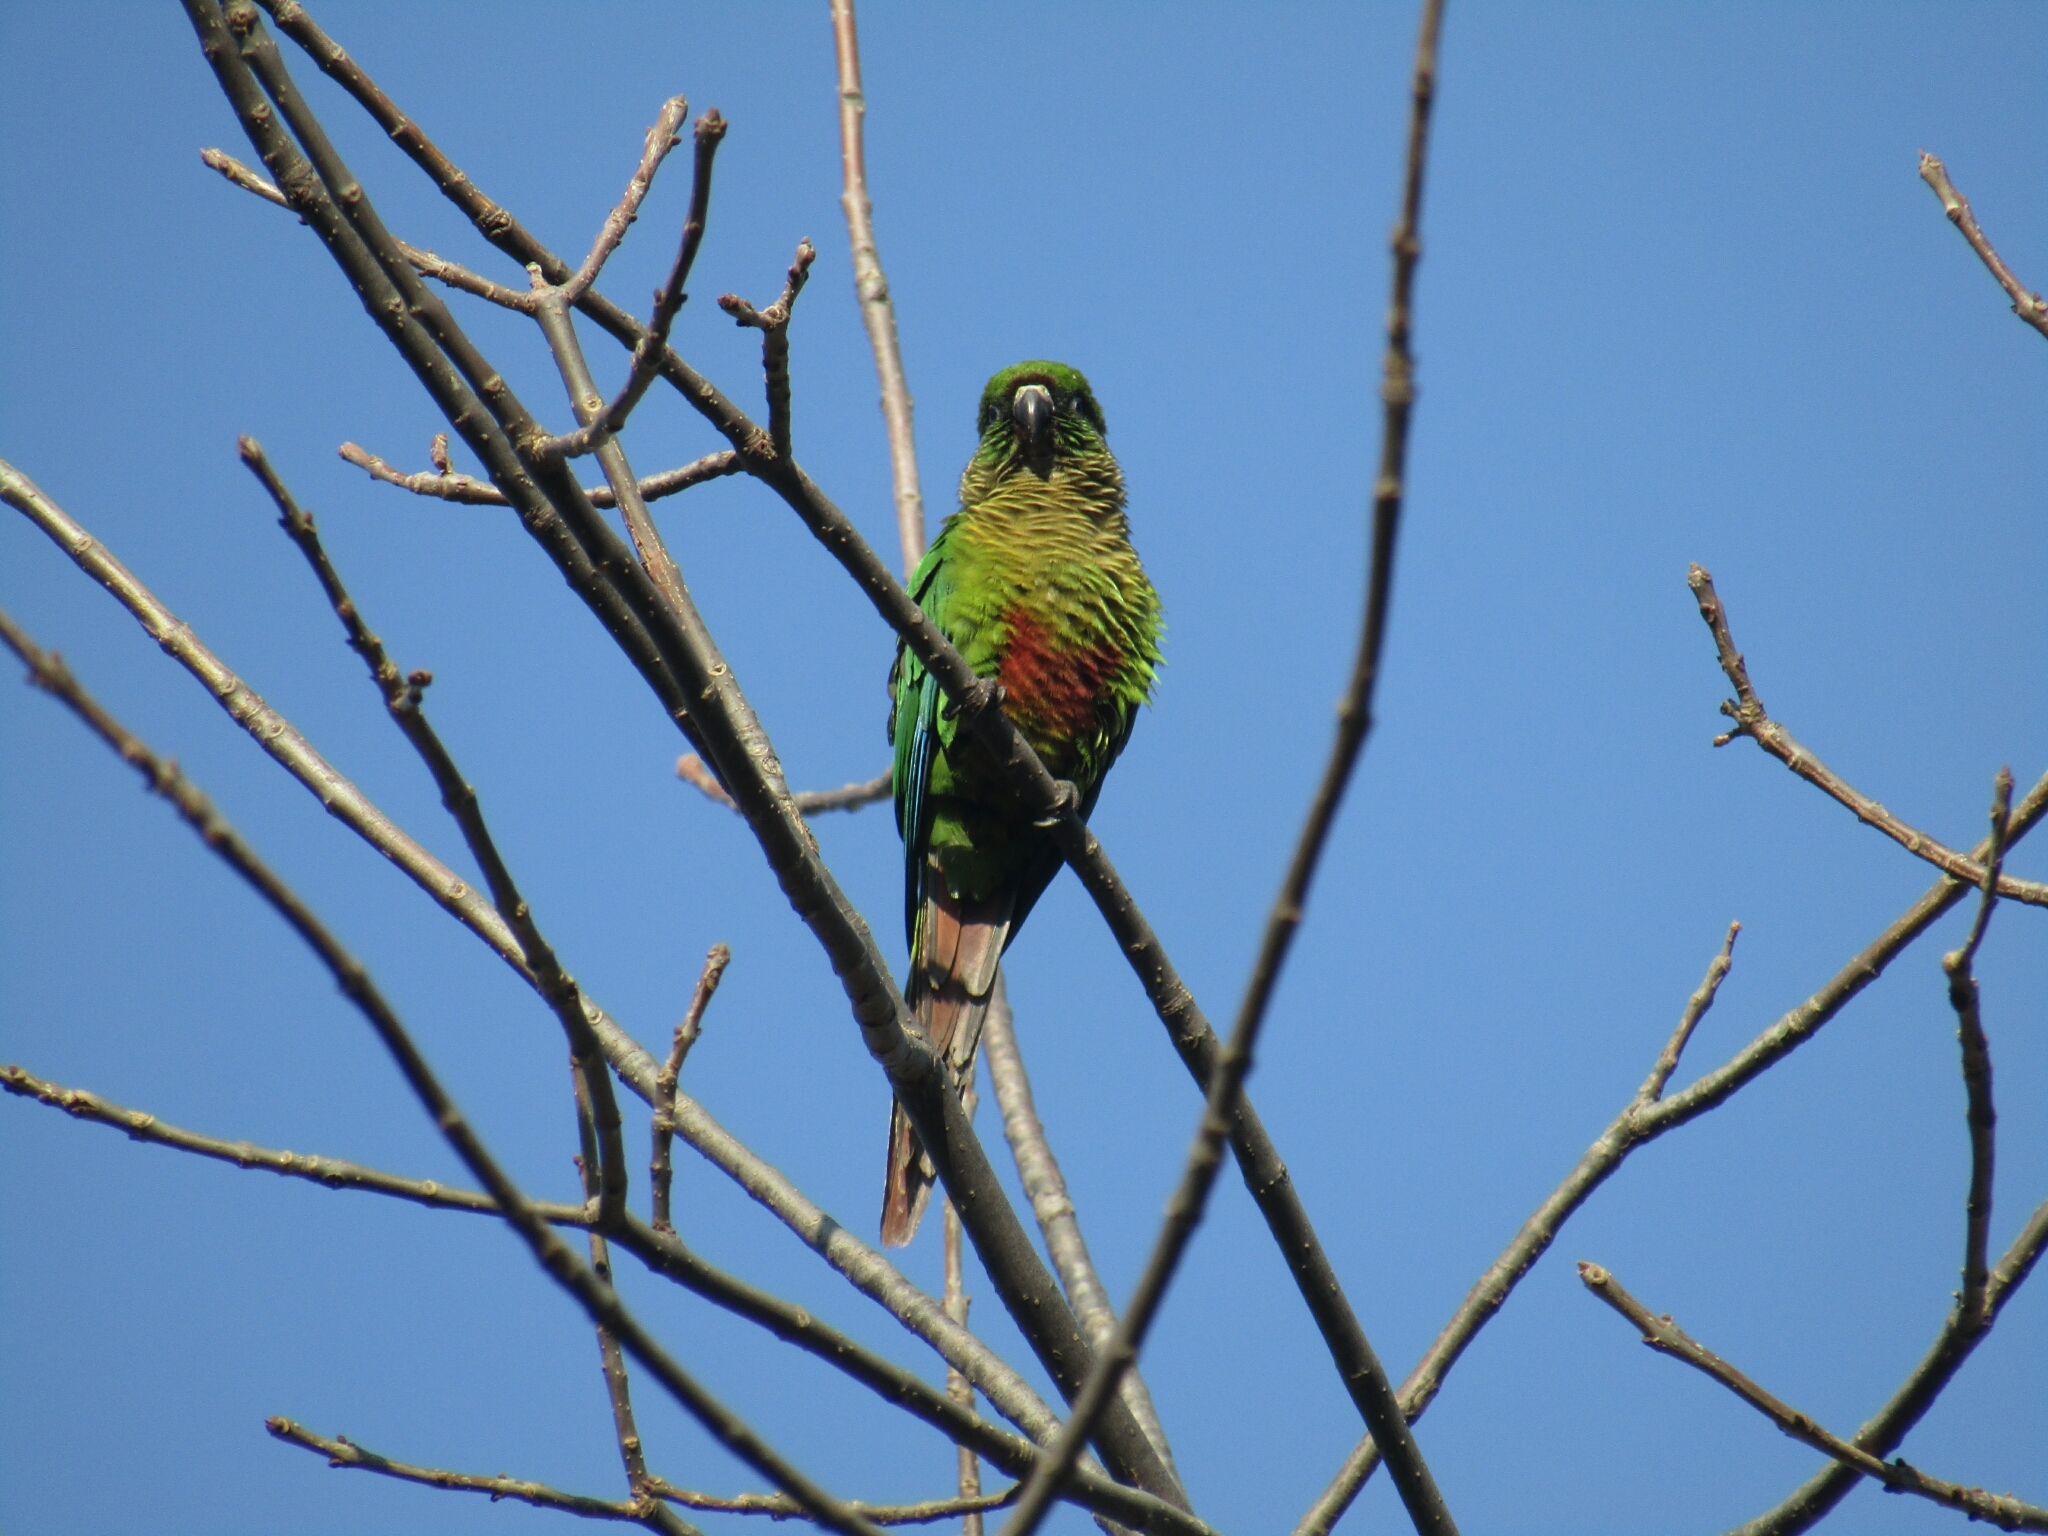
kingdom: Animalia
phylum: Chordata
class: Aves
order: Psittaciformes
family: Psittacidae
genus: Pyrrhura
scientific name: Pyrrhura frontalis
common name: Maroon-bellied parakeet
